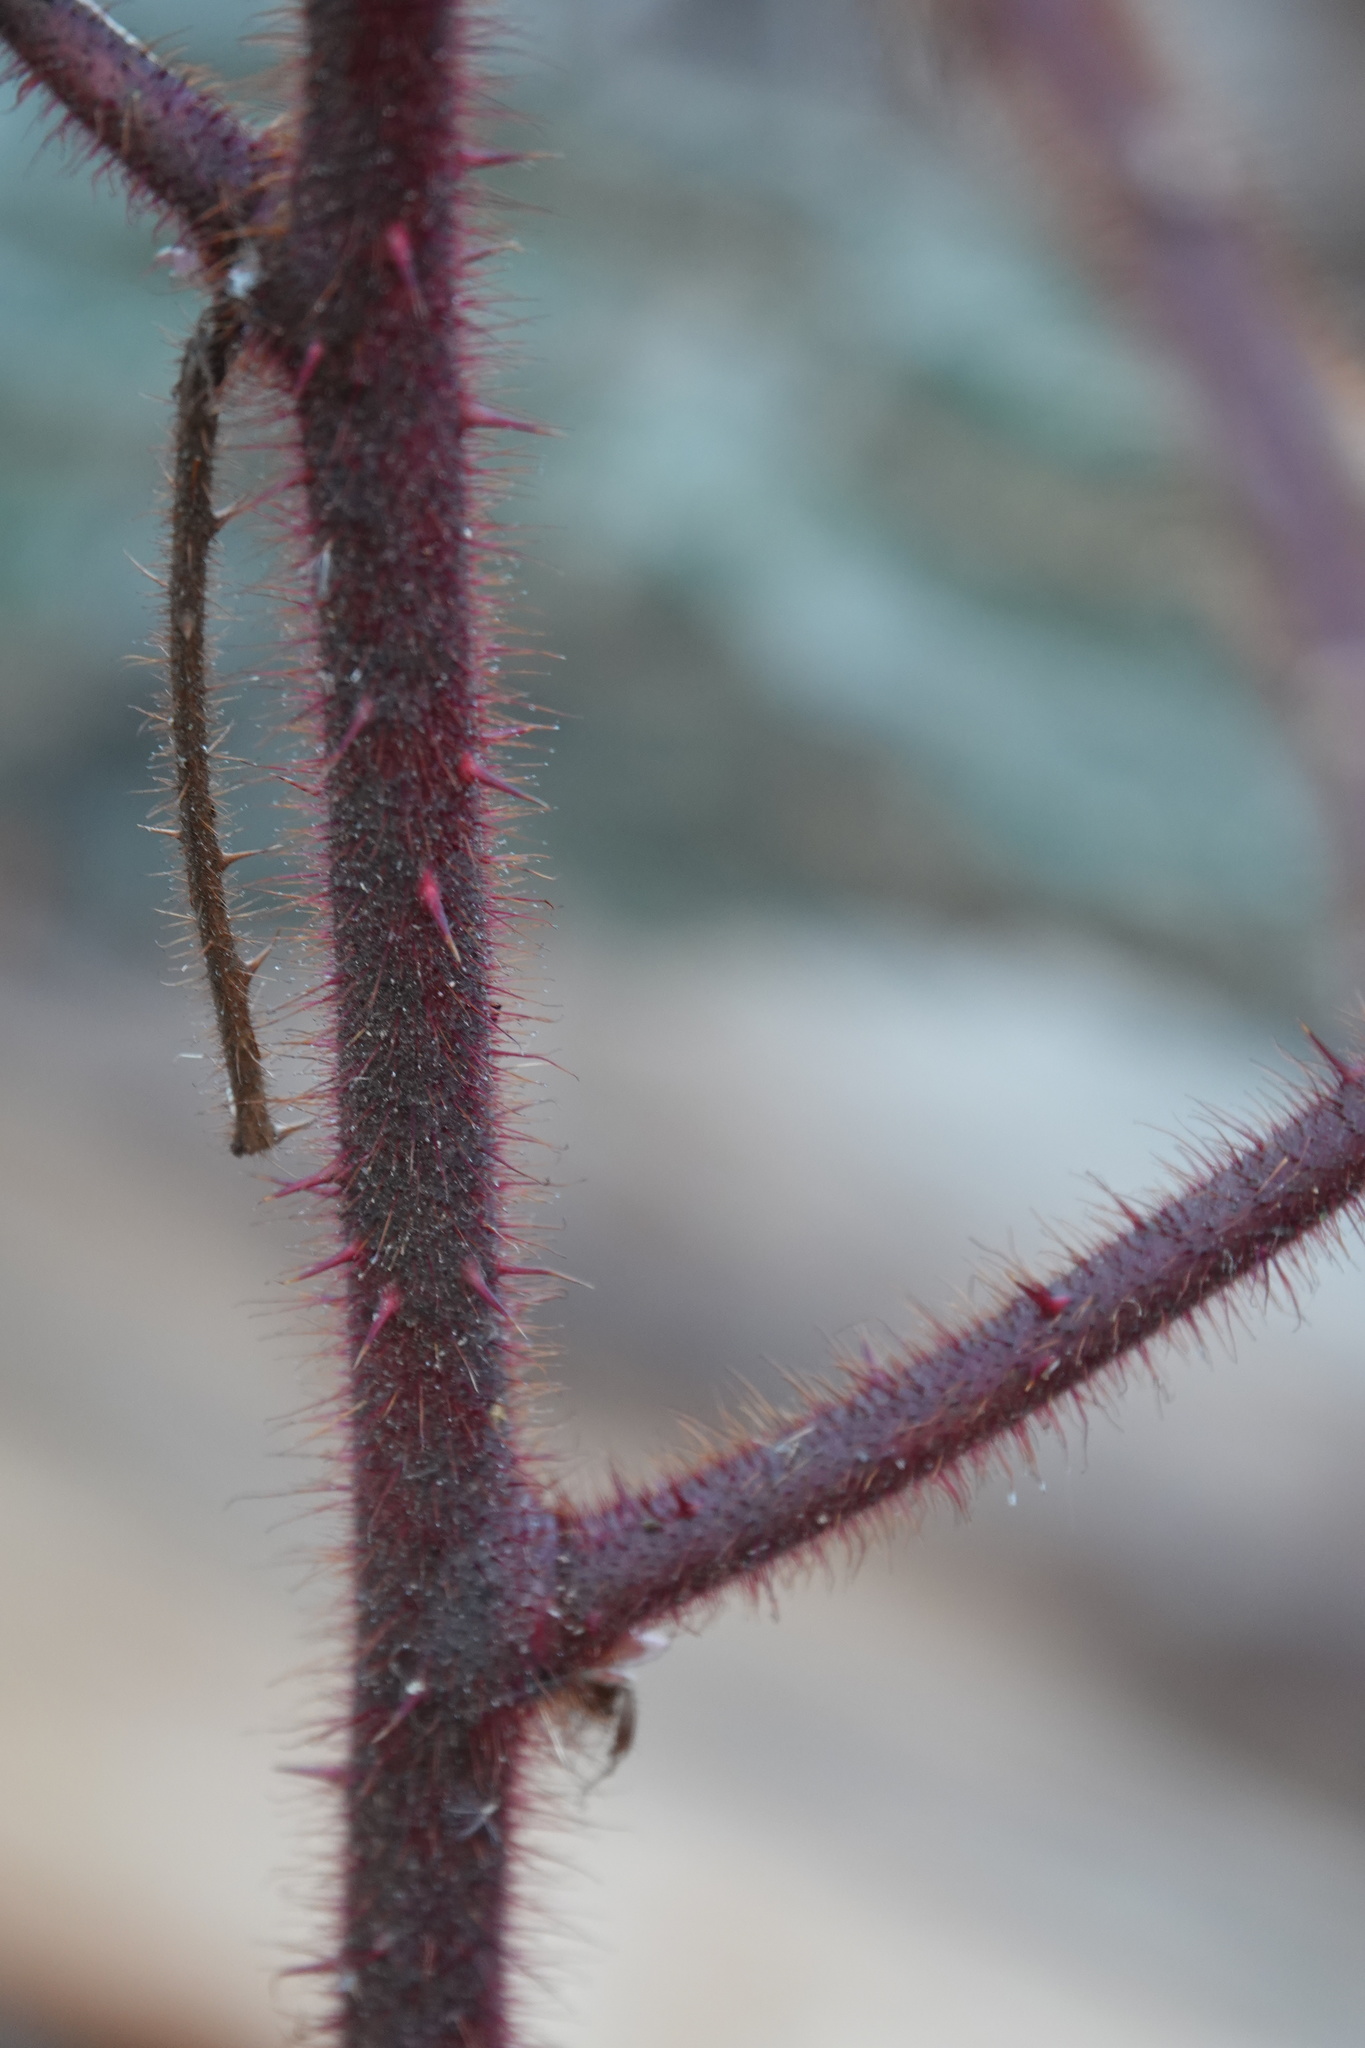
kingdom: Plantae
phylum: Tracheophyta
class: Magnoliopsida
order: Rosales
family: Rosaceae
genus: Rubus
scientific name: Rubus phoenicolasius
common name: Japanese wineberry
